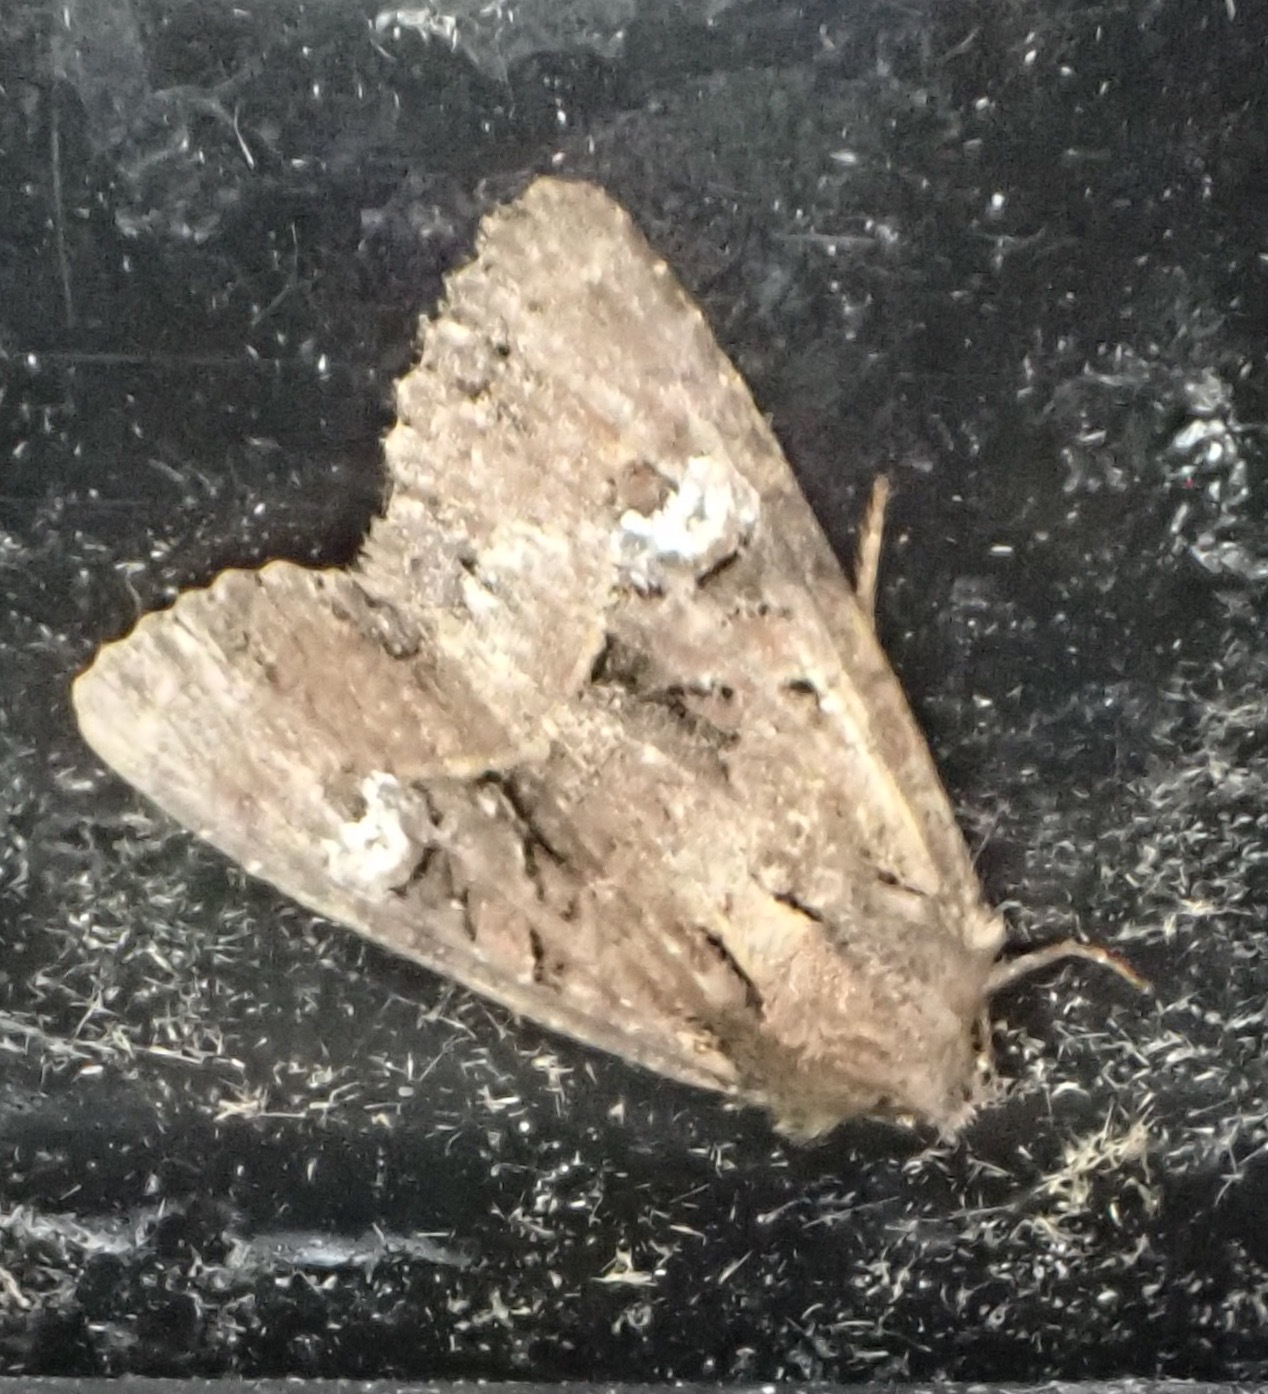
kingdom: Animalia
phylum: Arthropoda
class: Insecta
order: Lepidoptera
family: Noctuidae
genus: Mesapamea
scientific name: Mesapamea
